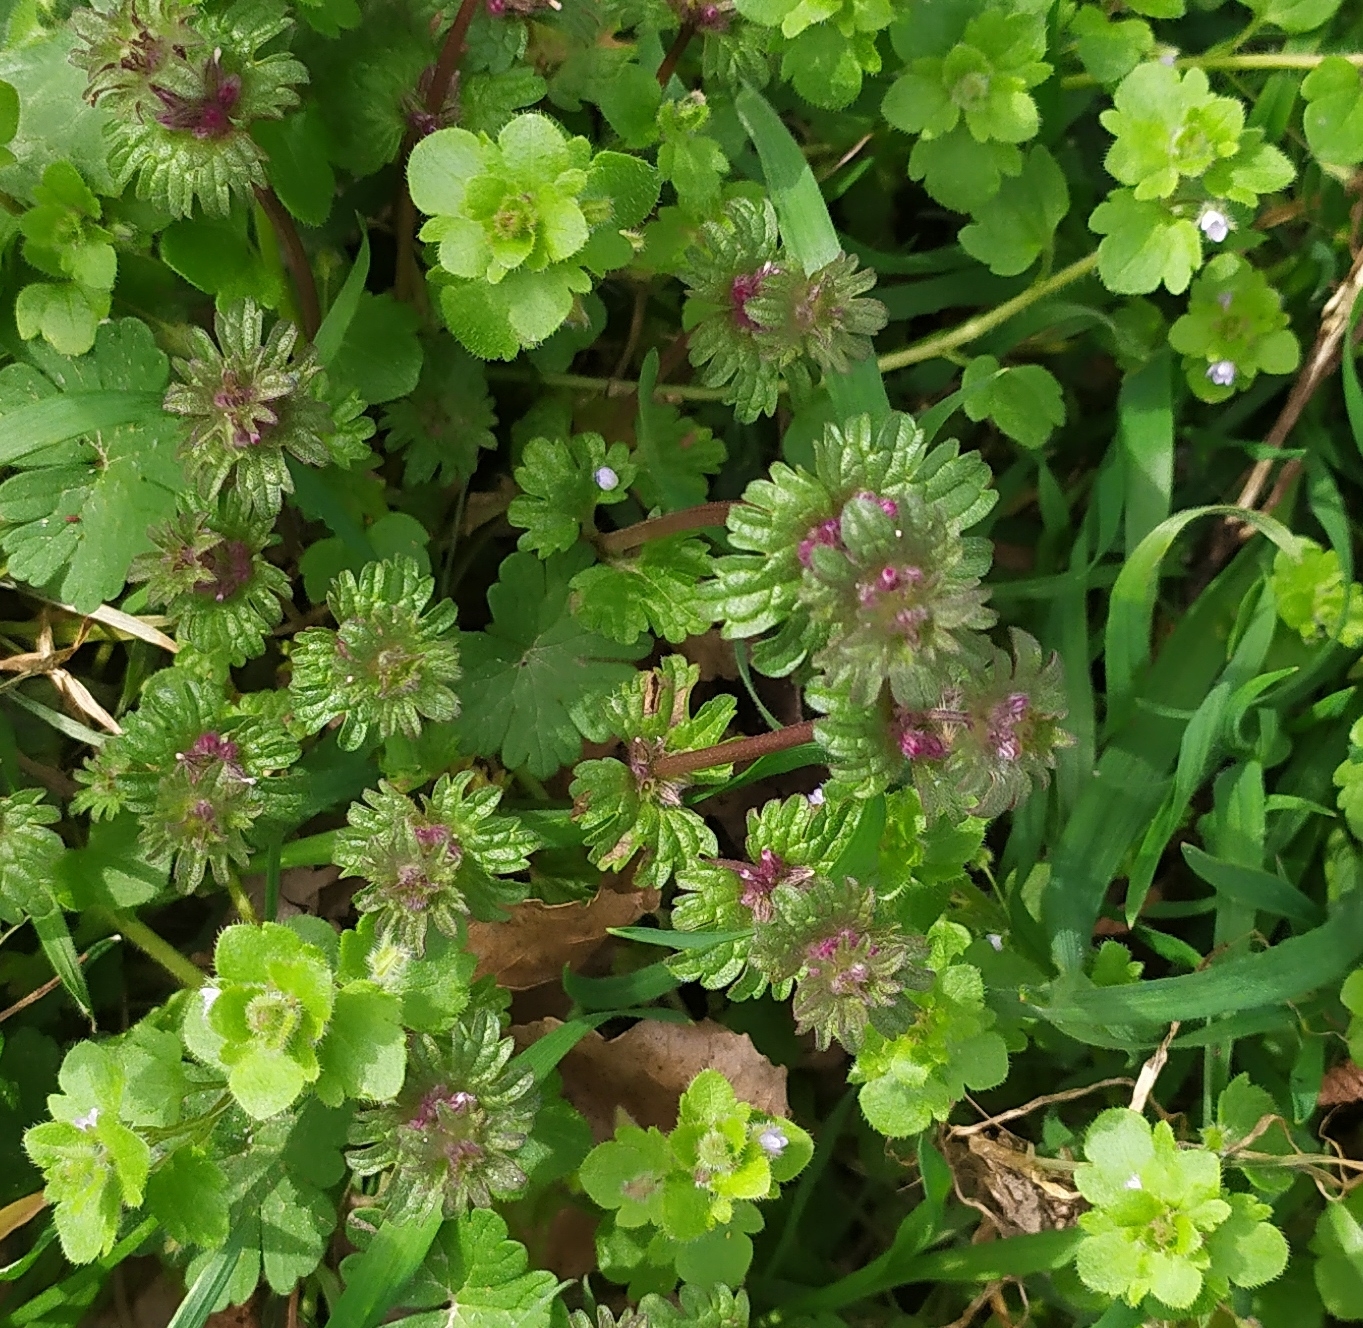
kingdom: Plantae
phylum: Tracheophyta
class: Magnoliopsida
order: Lamiales
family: Lamiaceae
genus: Lamium
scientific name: Lamium amplexicaule
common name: Henbit dead-nettle
